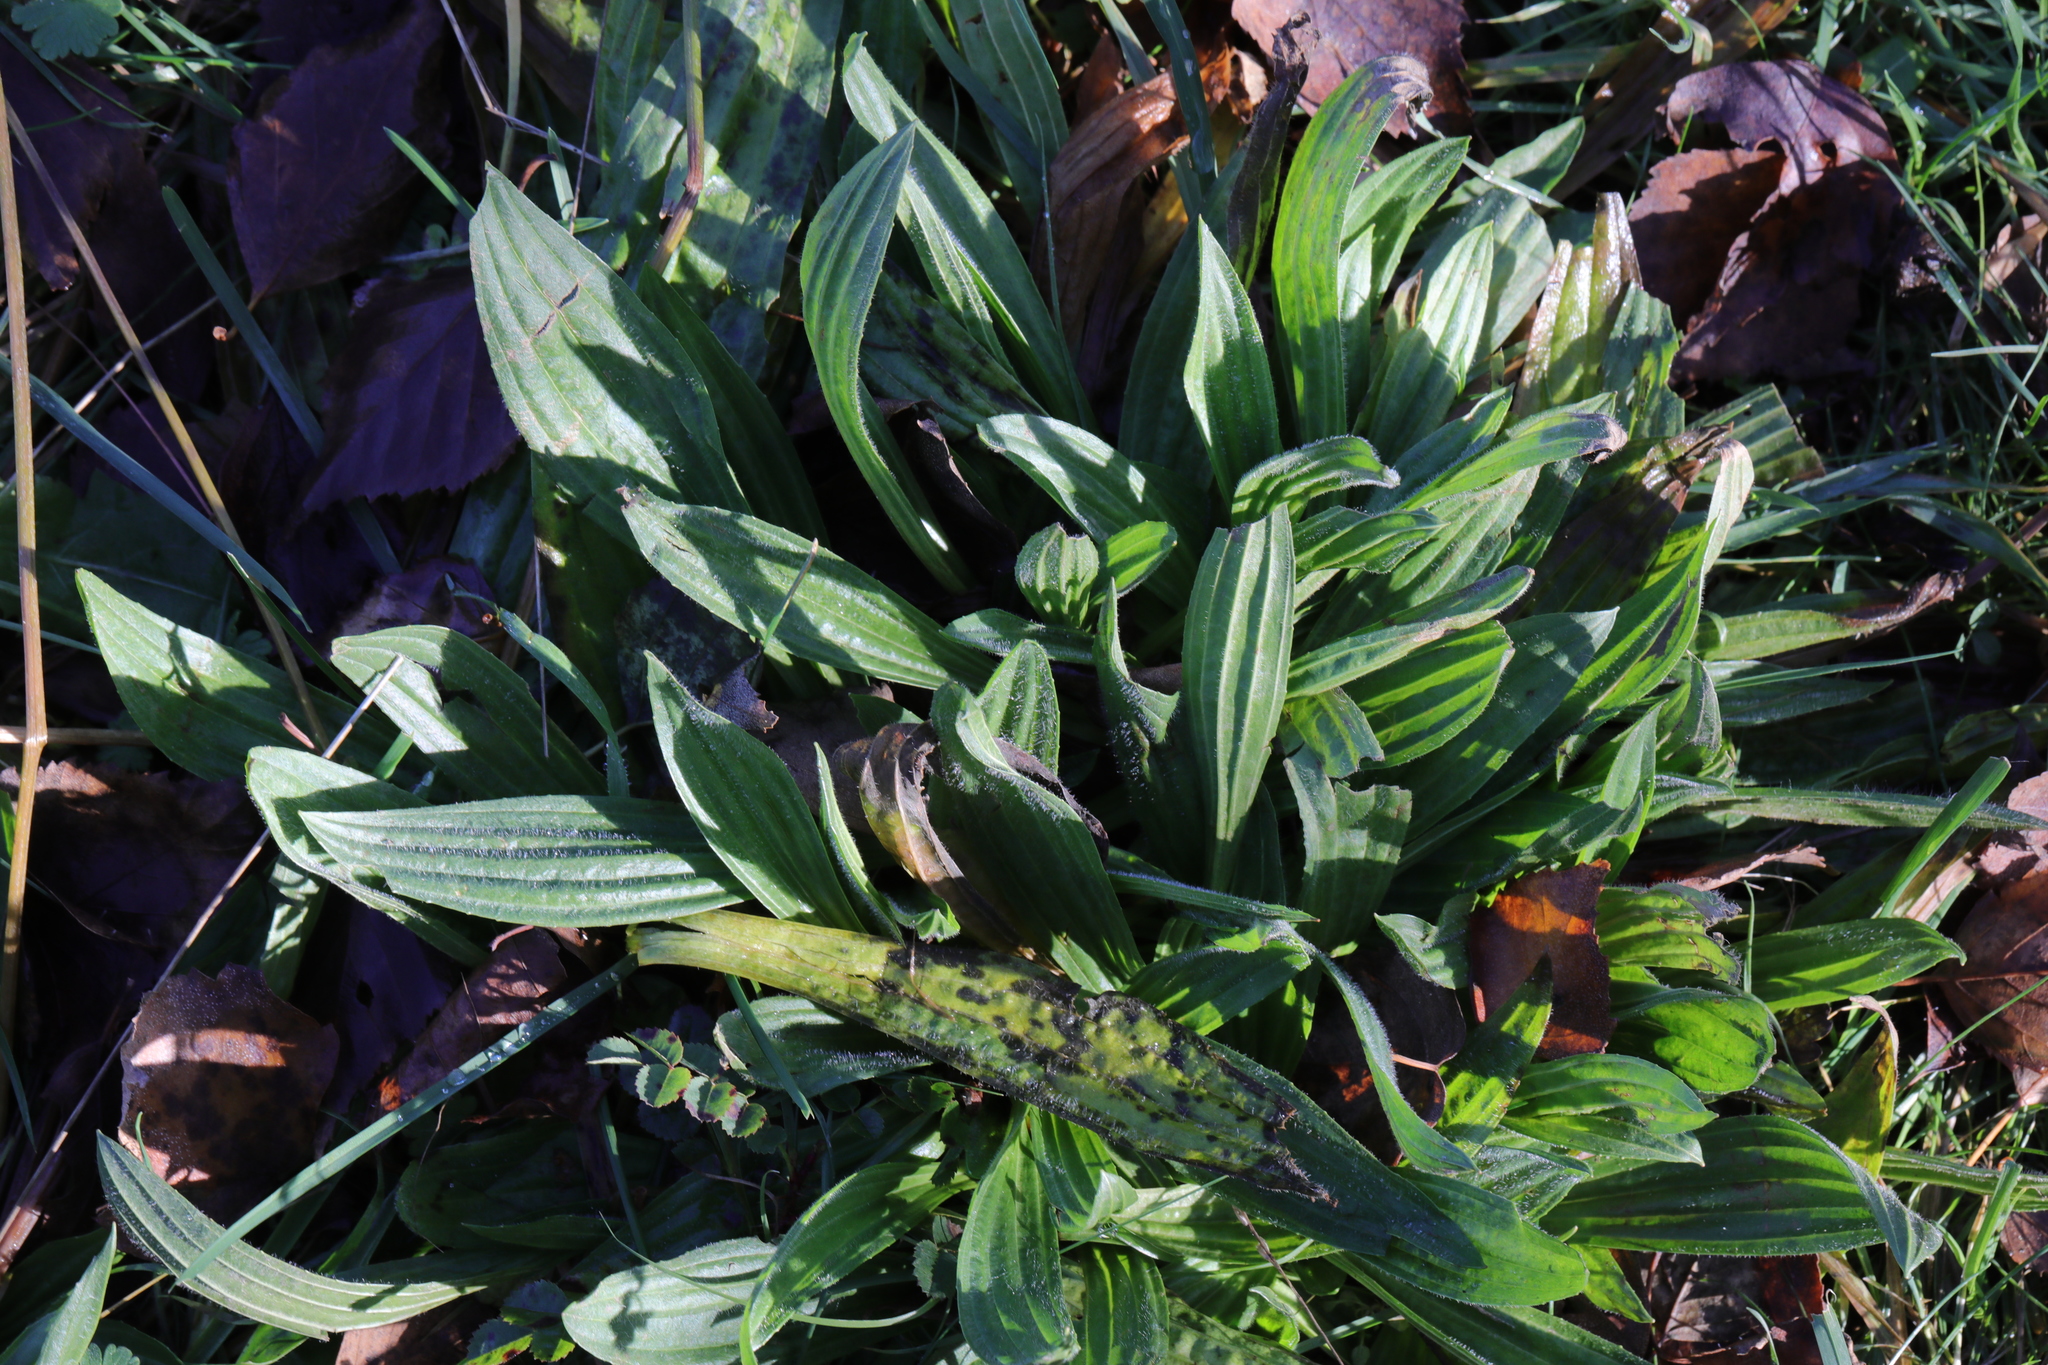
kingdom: Plantae
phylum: Tracheophyta
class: Magnoliopsida
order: Lamiales
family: Plantaginaceae
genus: Plantago
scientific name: Plantago lanceolata
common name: Ribwort plantain
